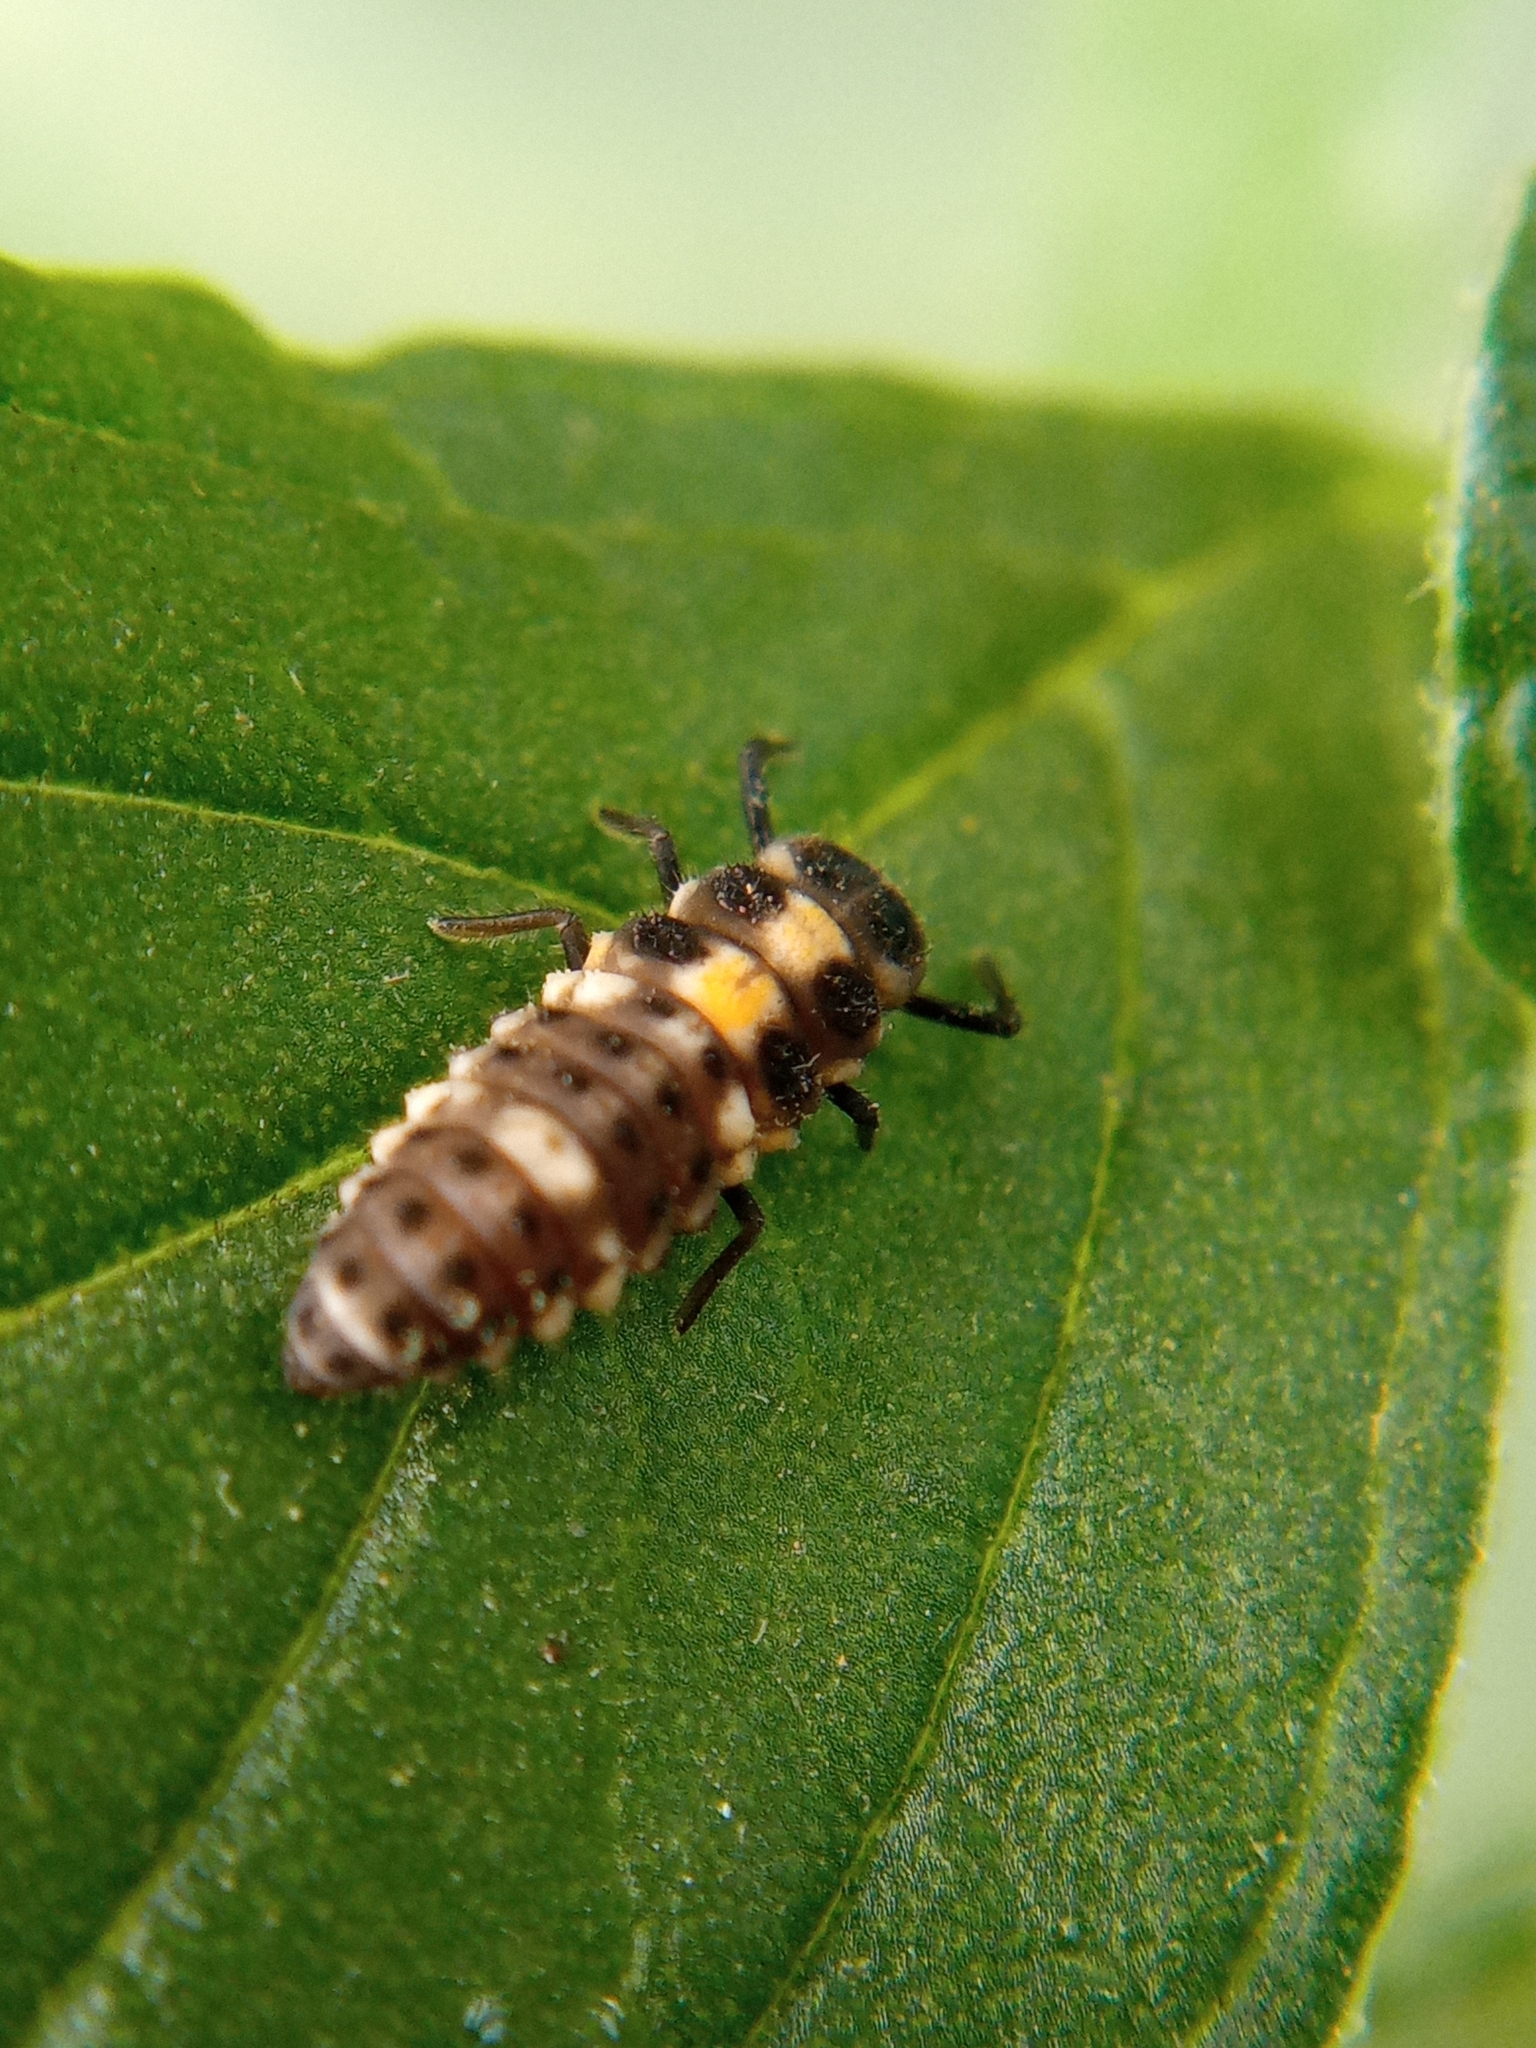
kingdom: Animalia
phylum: Arthropoda
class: Insecta
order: Coleoptera
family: Coccinellidae
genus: Propylaea
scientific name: Propylaea quatuordecimpunctata
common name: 14-spotted ladybird beetle
